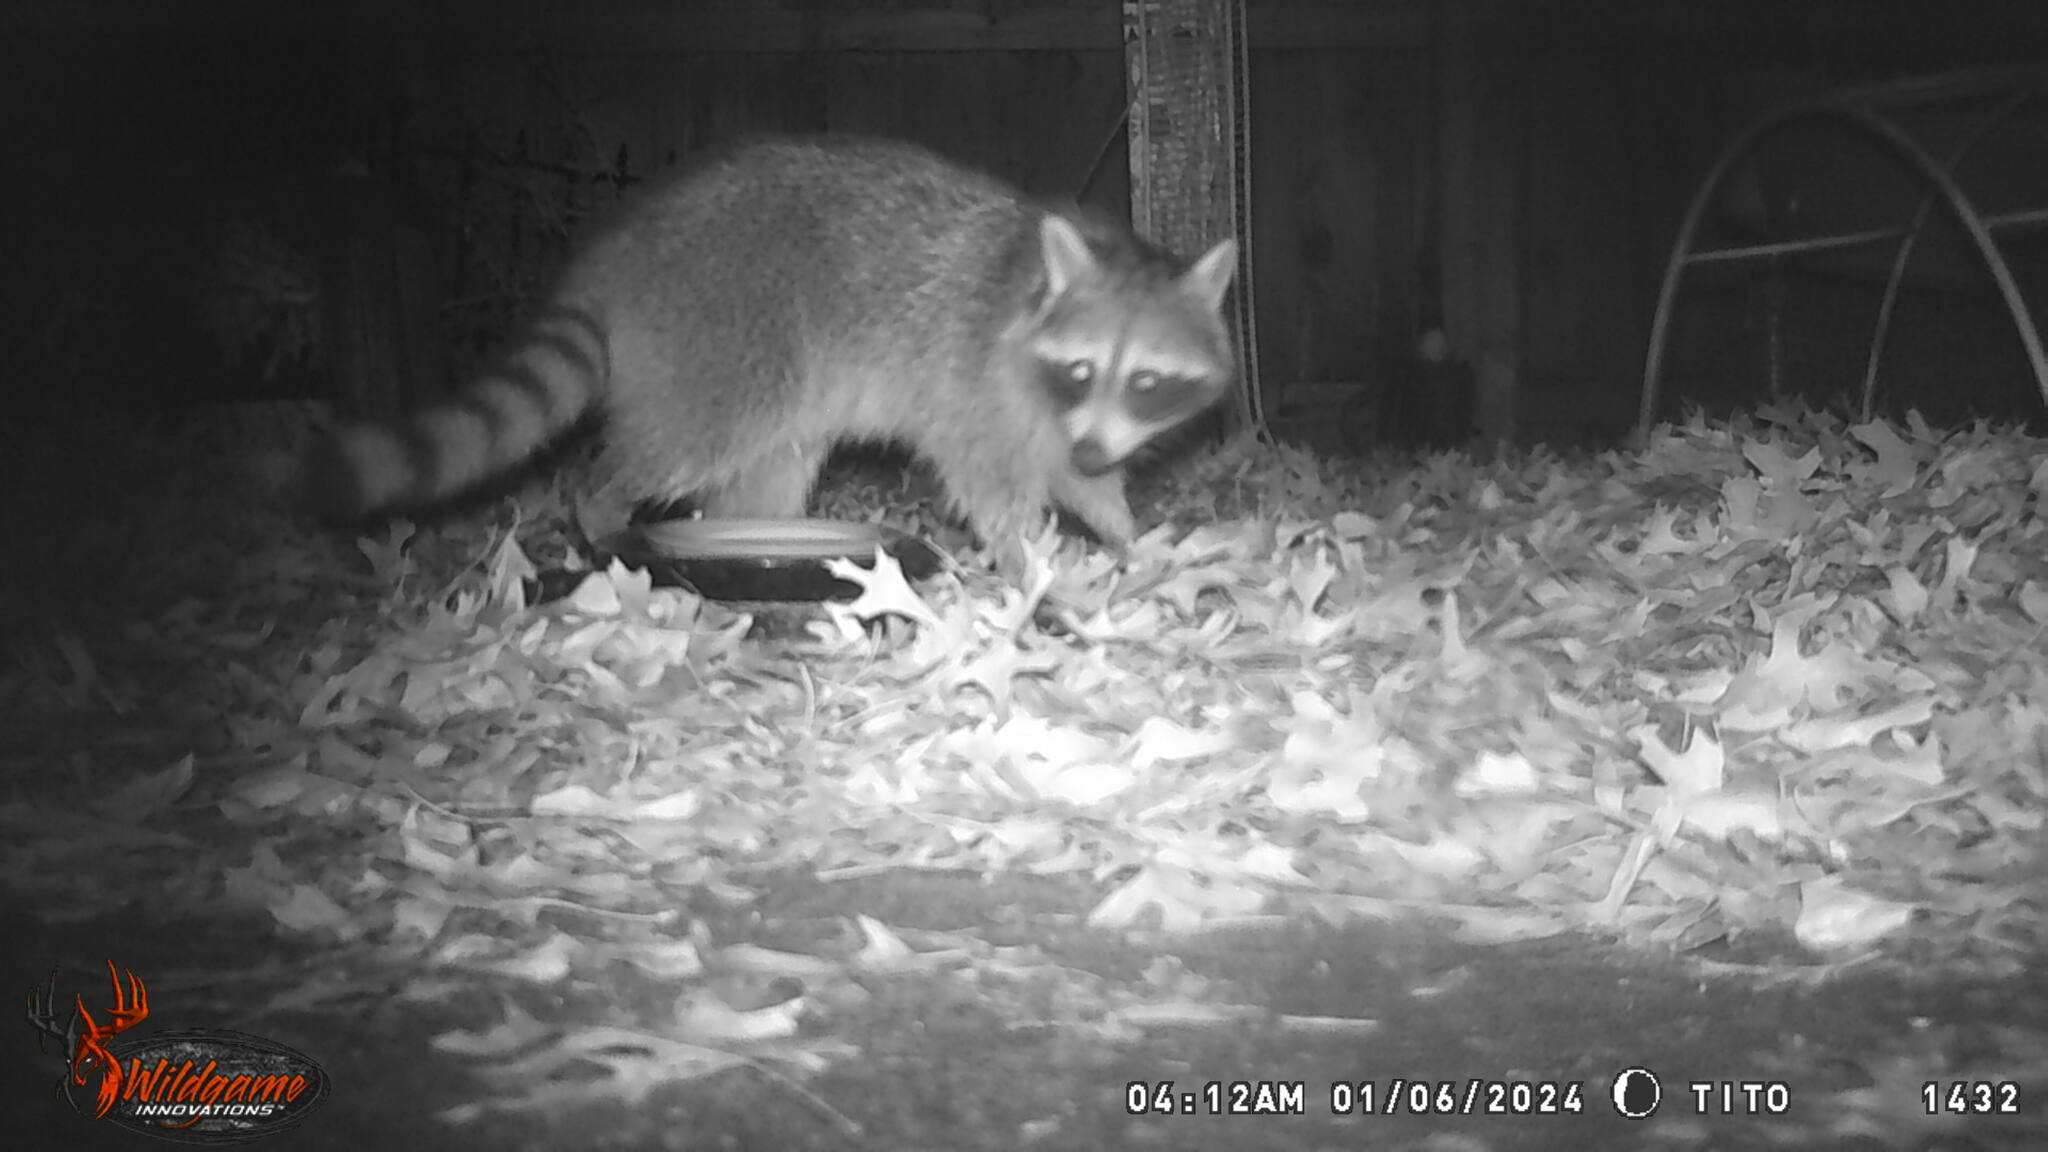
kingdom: Animalia
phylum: Chordata
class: Mammalia
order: Carnivora
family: Procyonidae
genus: Procyon
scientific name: Procyon lotor
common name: Raccoon
